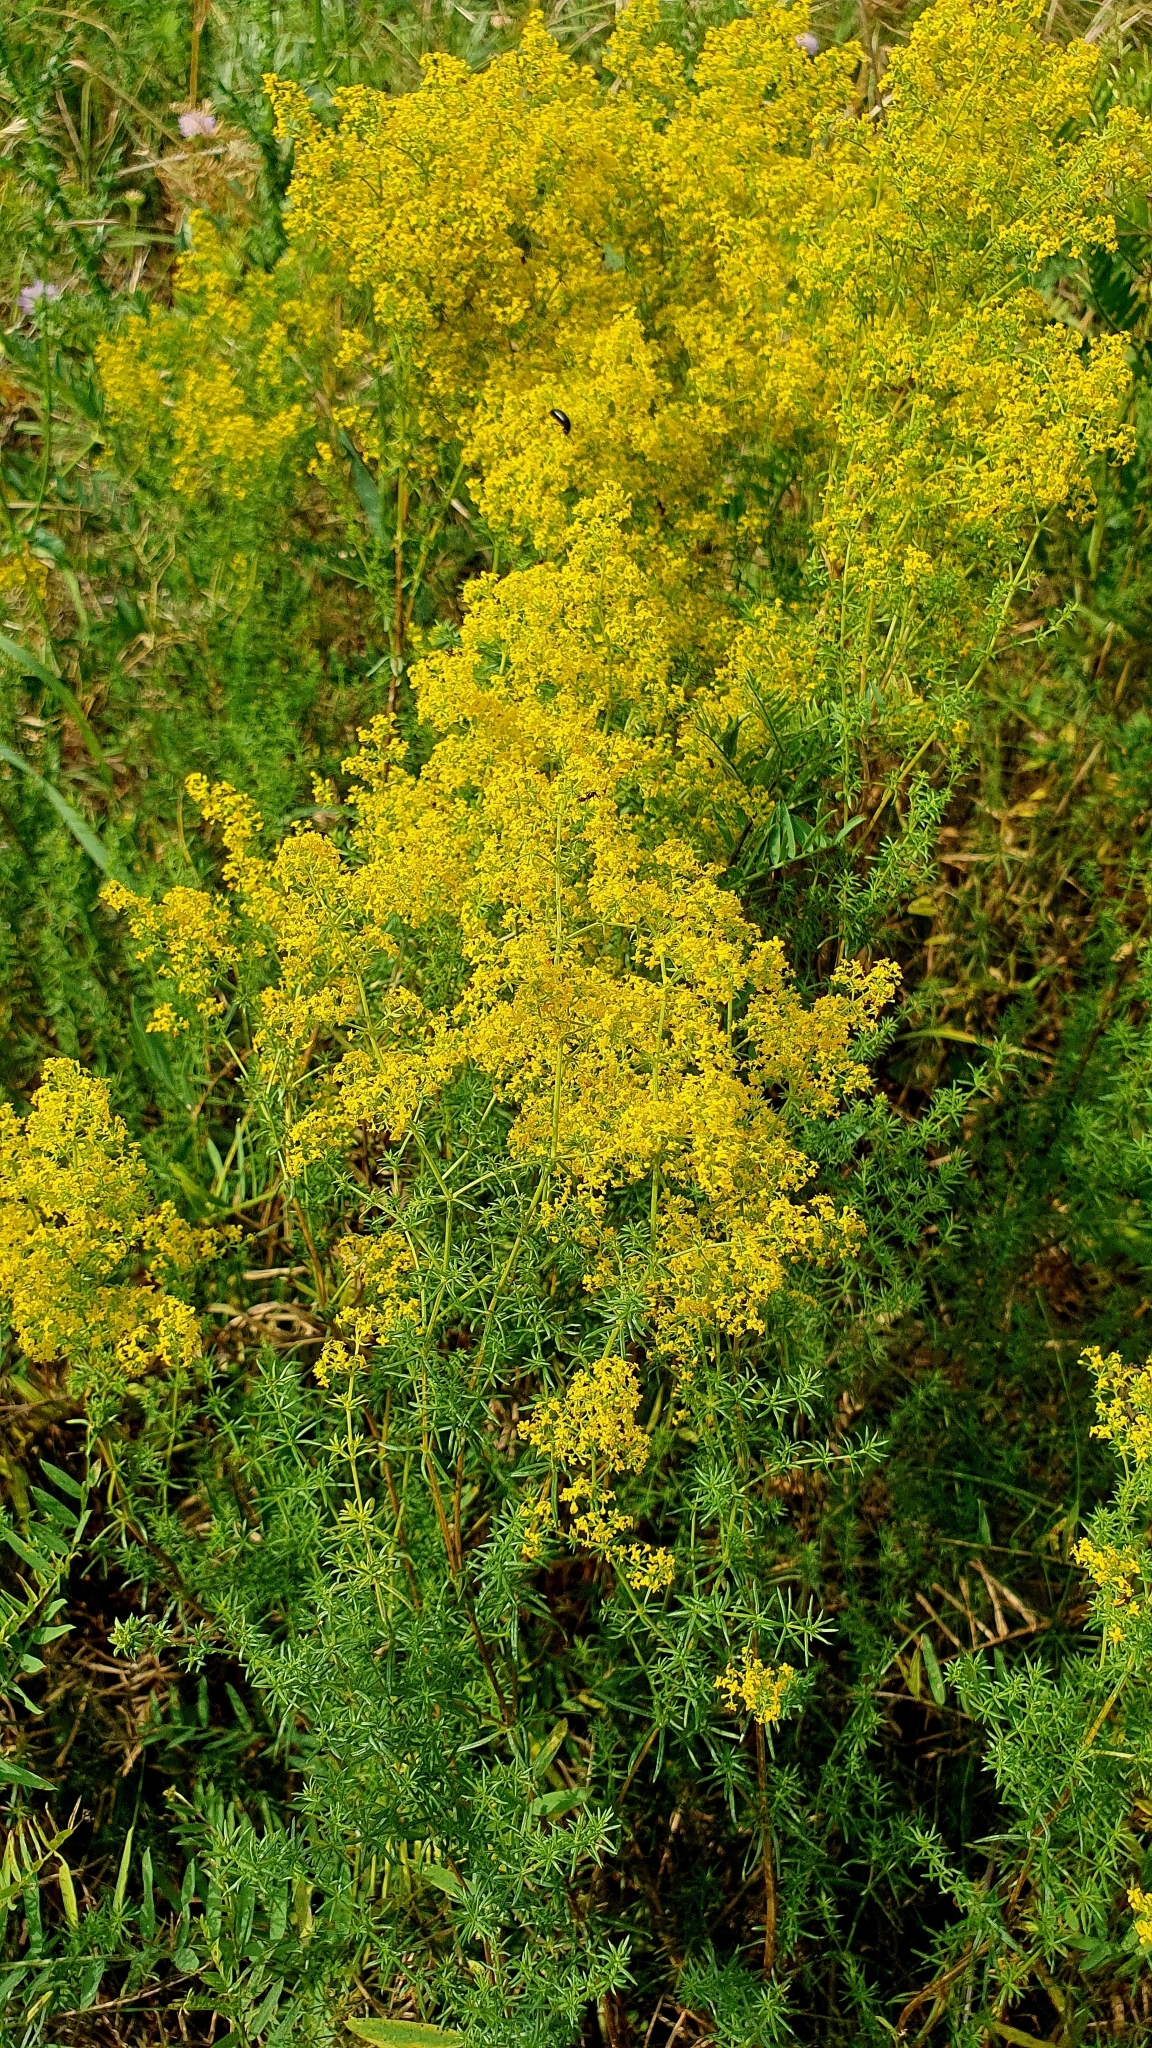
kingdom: Plantae
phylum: Tracheophyta
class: Magnoliopsida
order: Gentianales
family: Rubiaceae
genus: Galium
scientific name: Galium verum
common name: Lady's bedstraw
